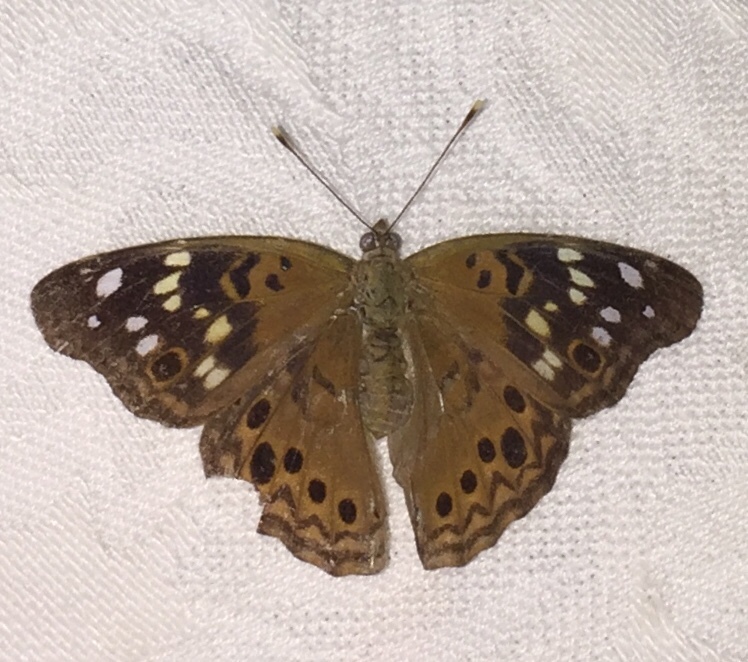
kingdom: Animalia
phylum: Arthropoda
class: Insecta
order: Lepidoptera
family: Nymphalidae
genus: Asterocampa
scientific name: Asterocampa celtis
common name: Hackberry emperor
